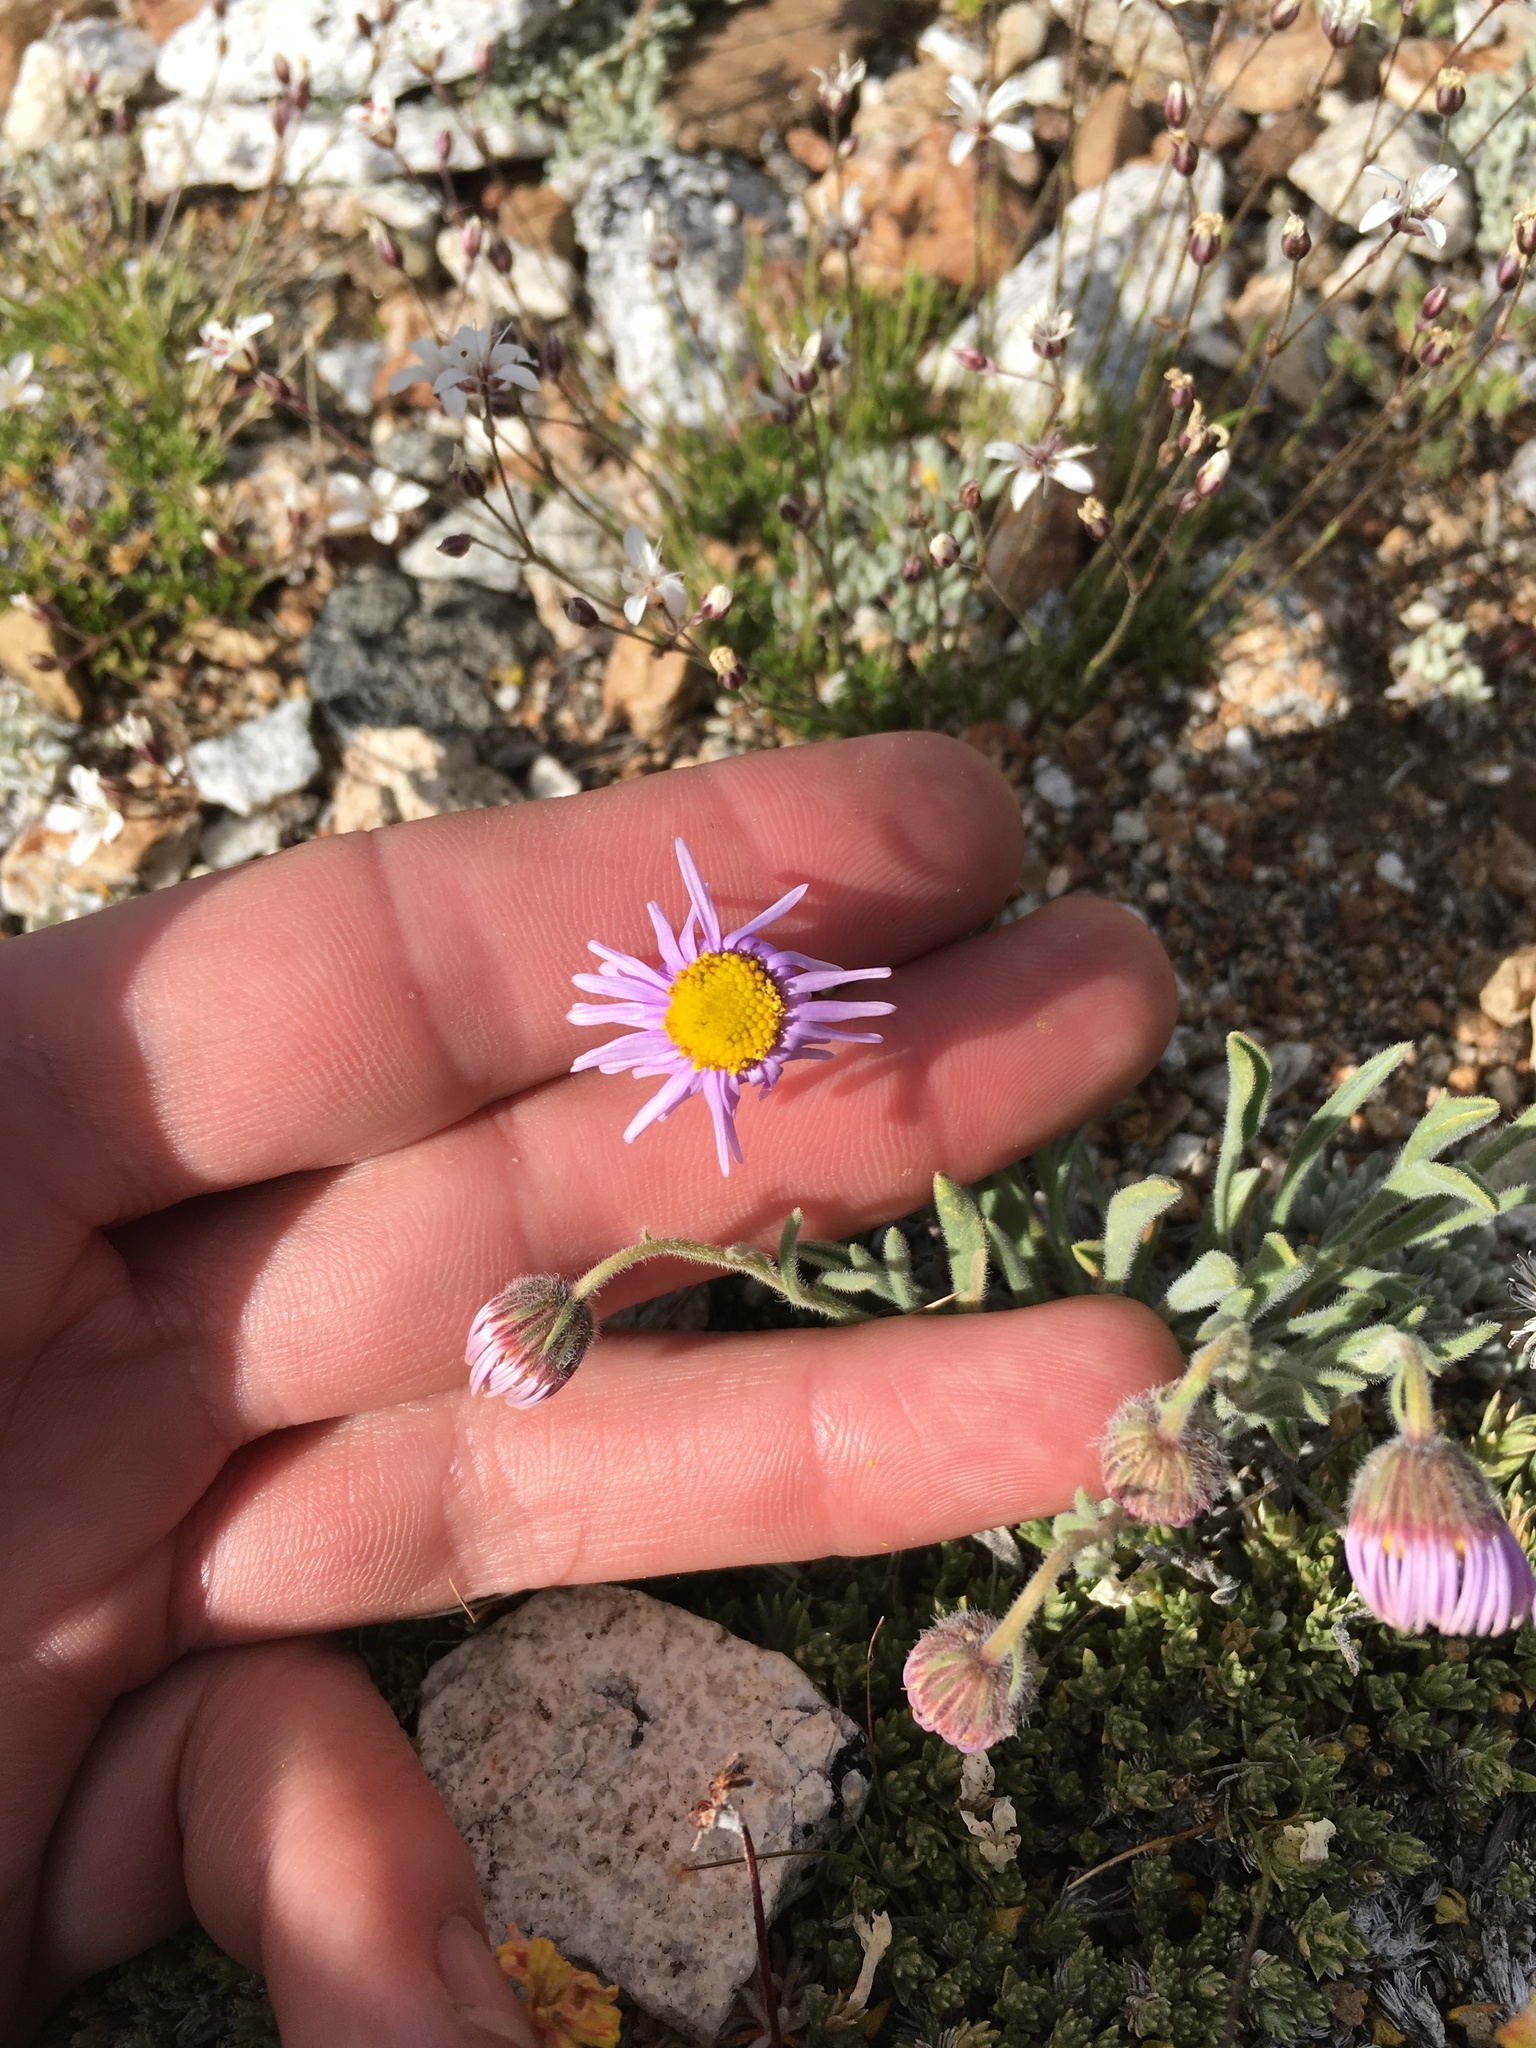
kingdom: Plantae
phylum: Tracheophyta
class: Magnoliopsida
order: Asterales
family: Asteraceae
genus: Erigeron
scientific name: Erigeron clokeyi
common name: Clokey's fleabane
